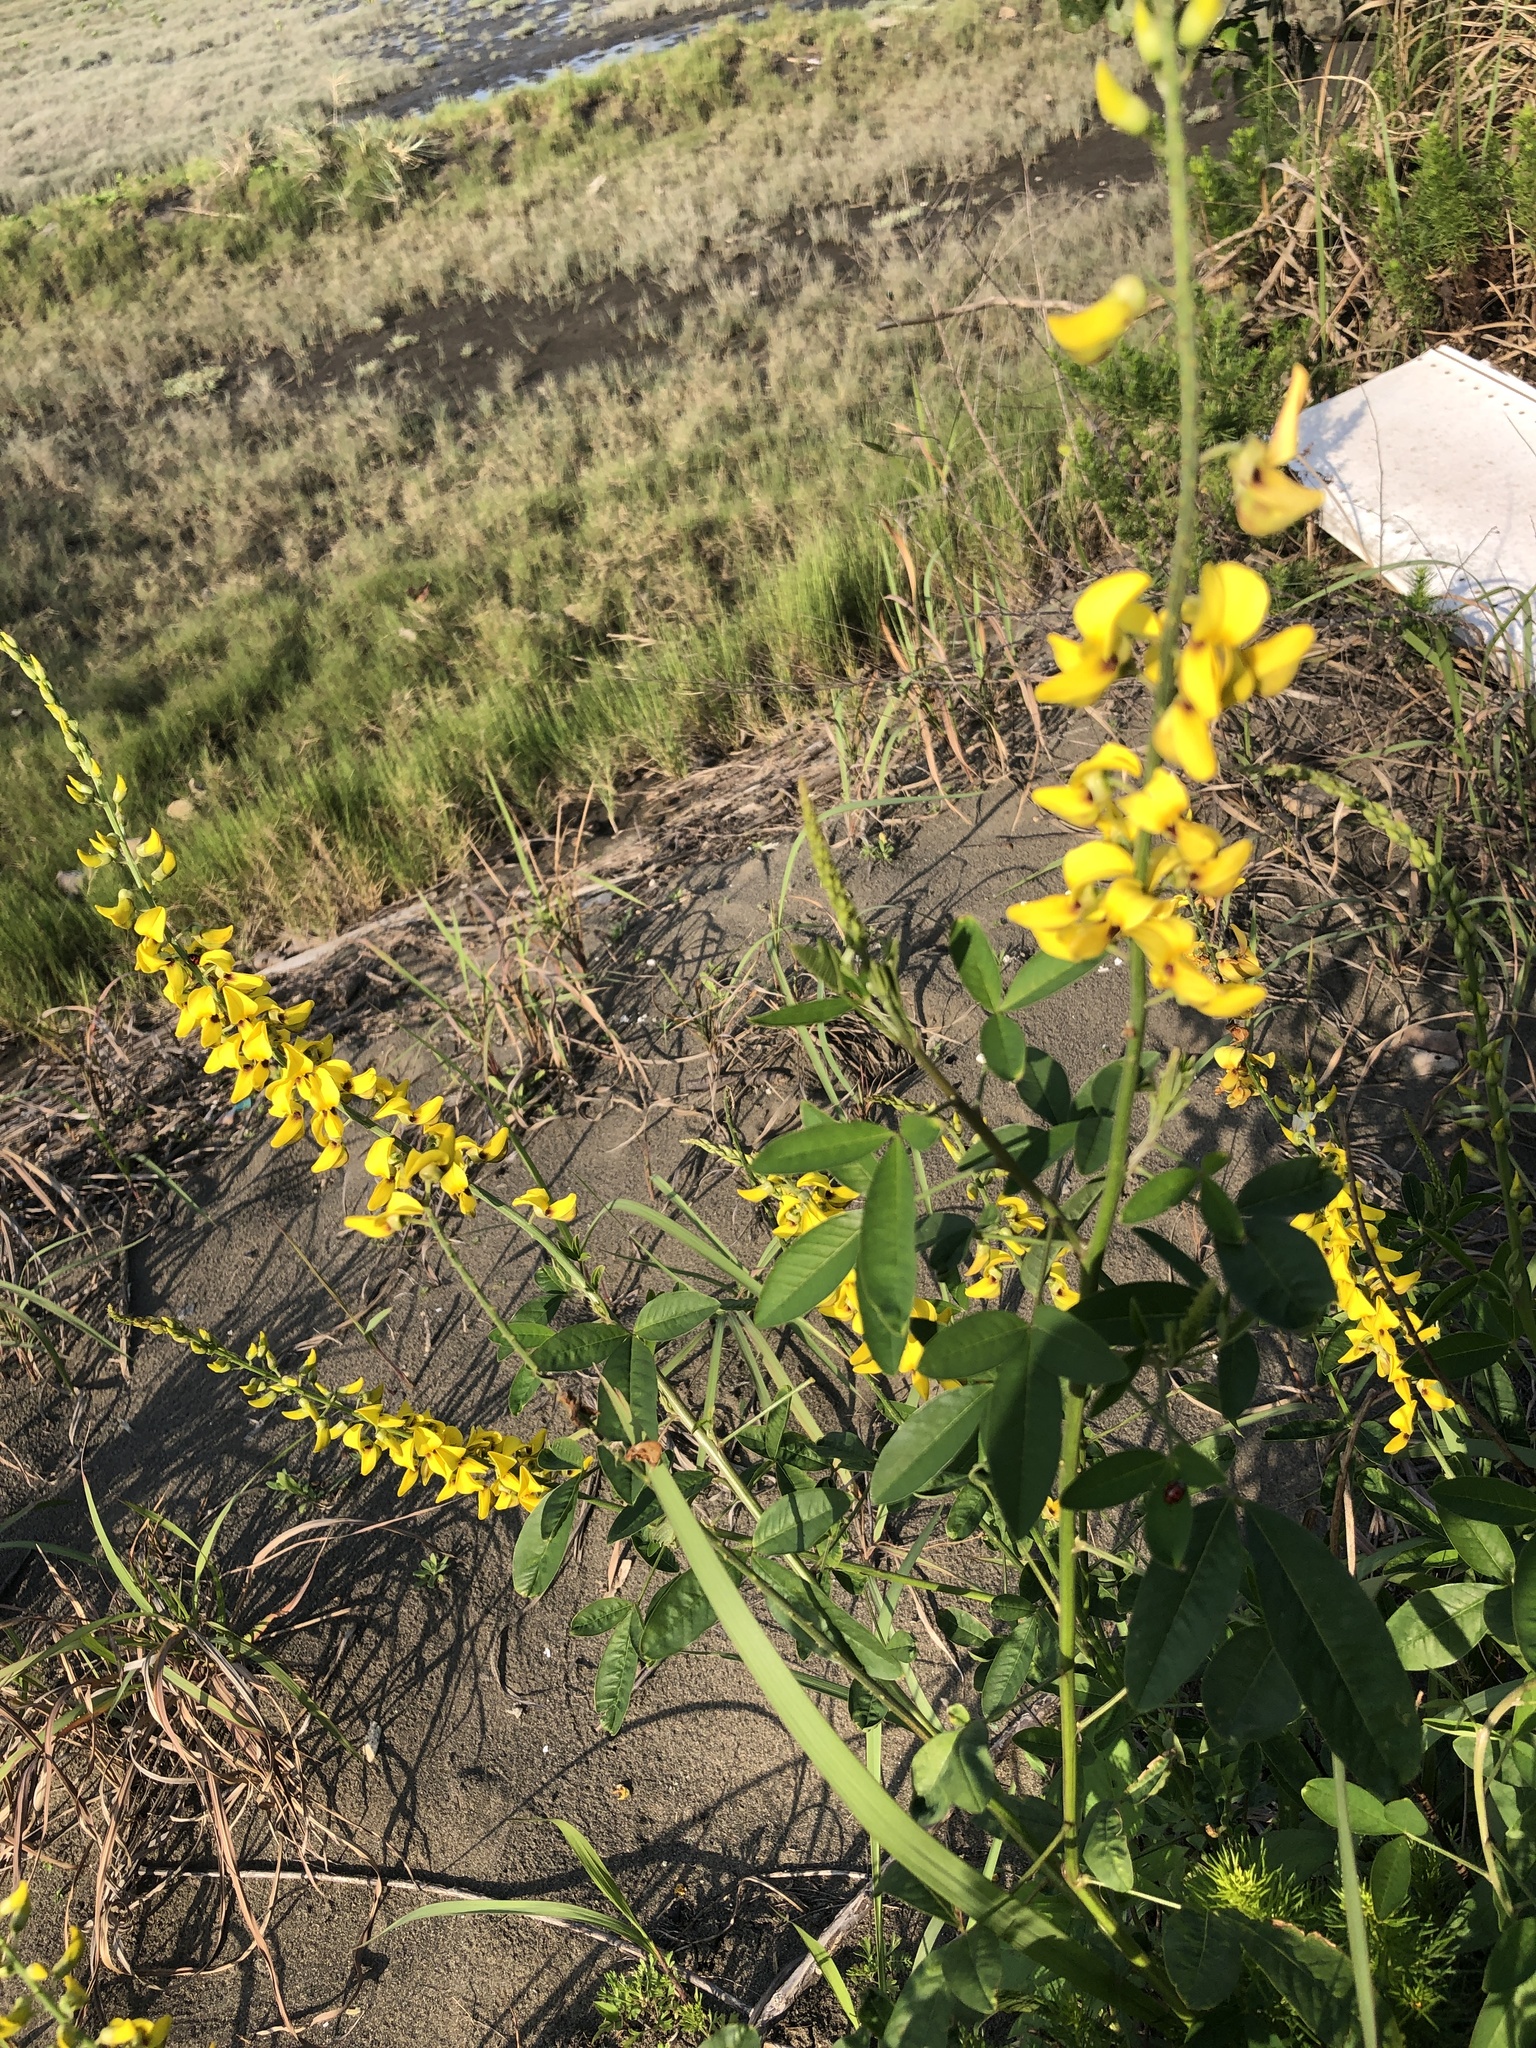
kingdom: Plantae
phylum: Tracheophyta
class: Magnoliopsida
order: Fabales
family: Fabaceae
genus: Crotalaria
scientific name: Crotalaria trichotoma
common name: West indian rattlebox
